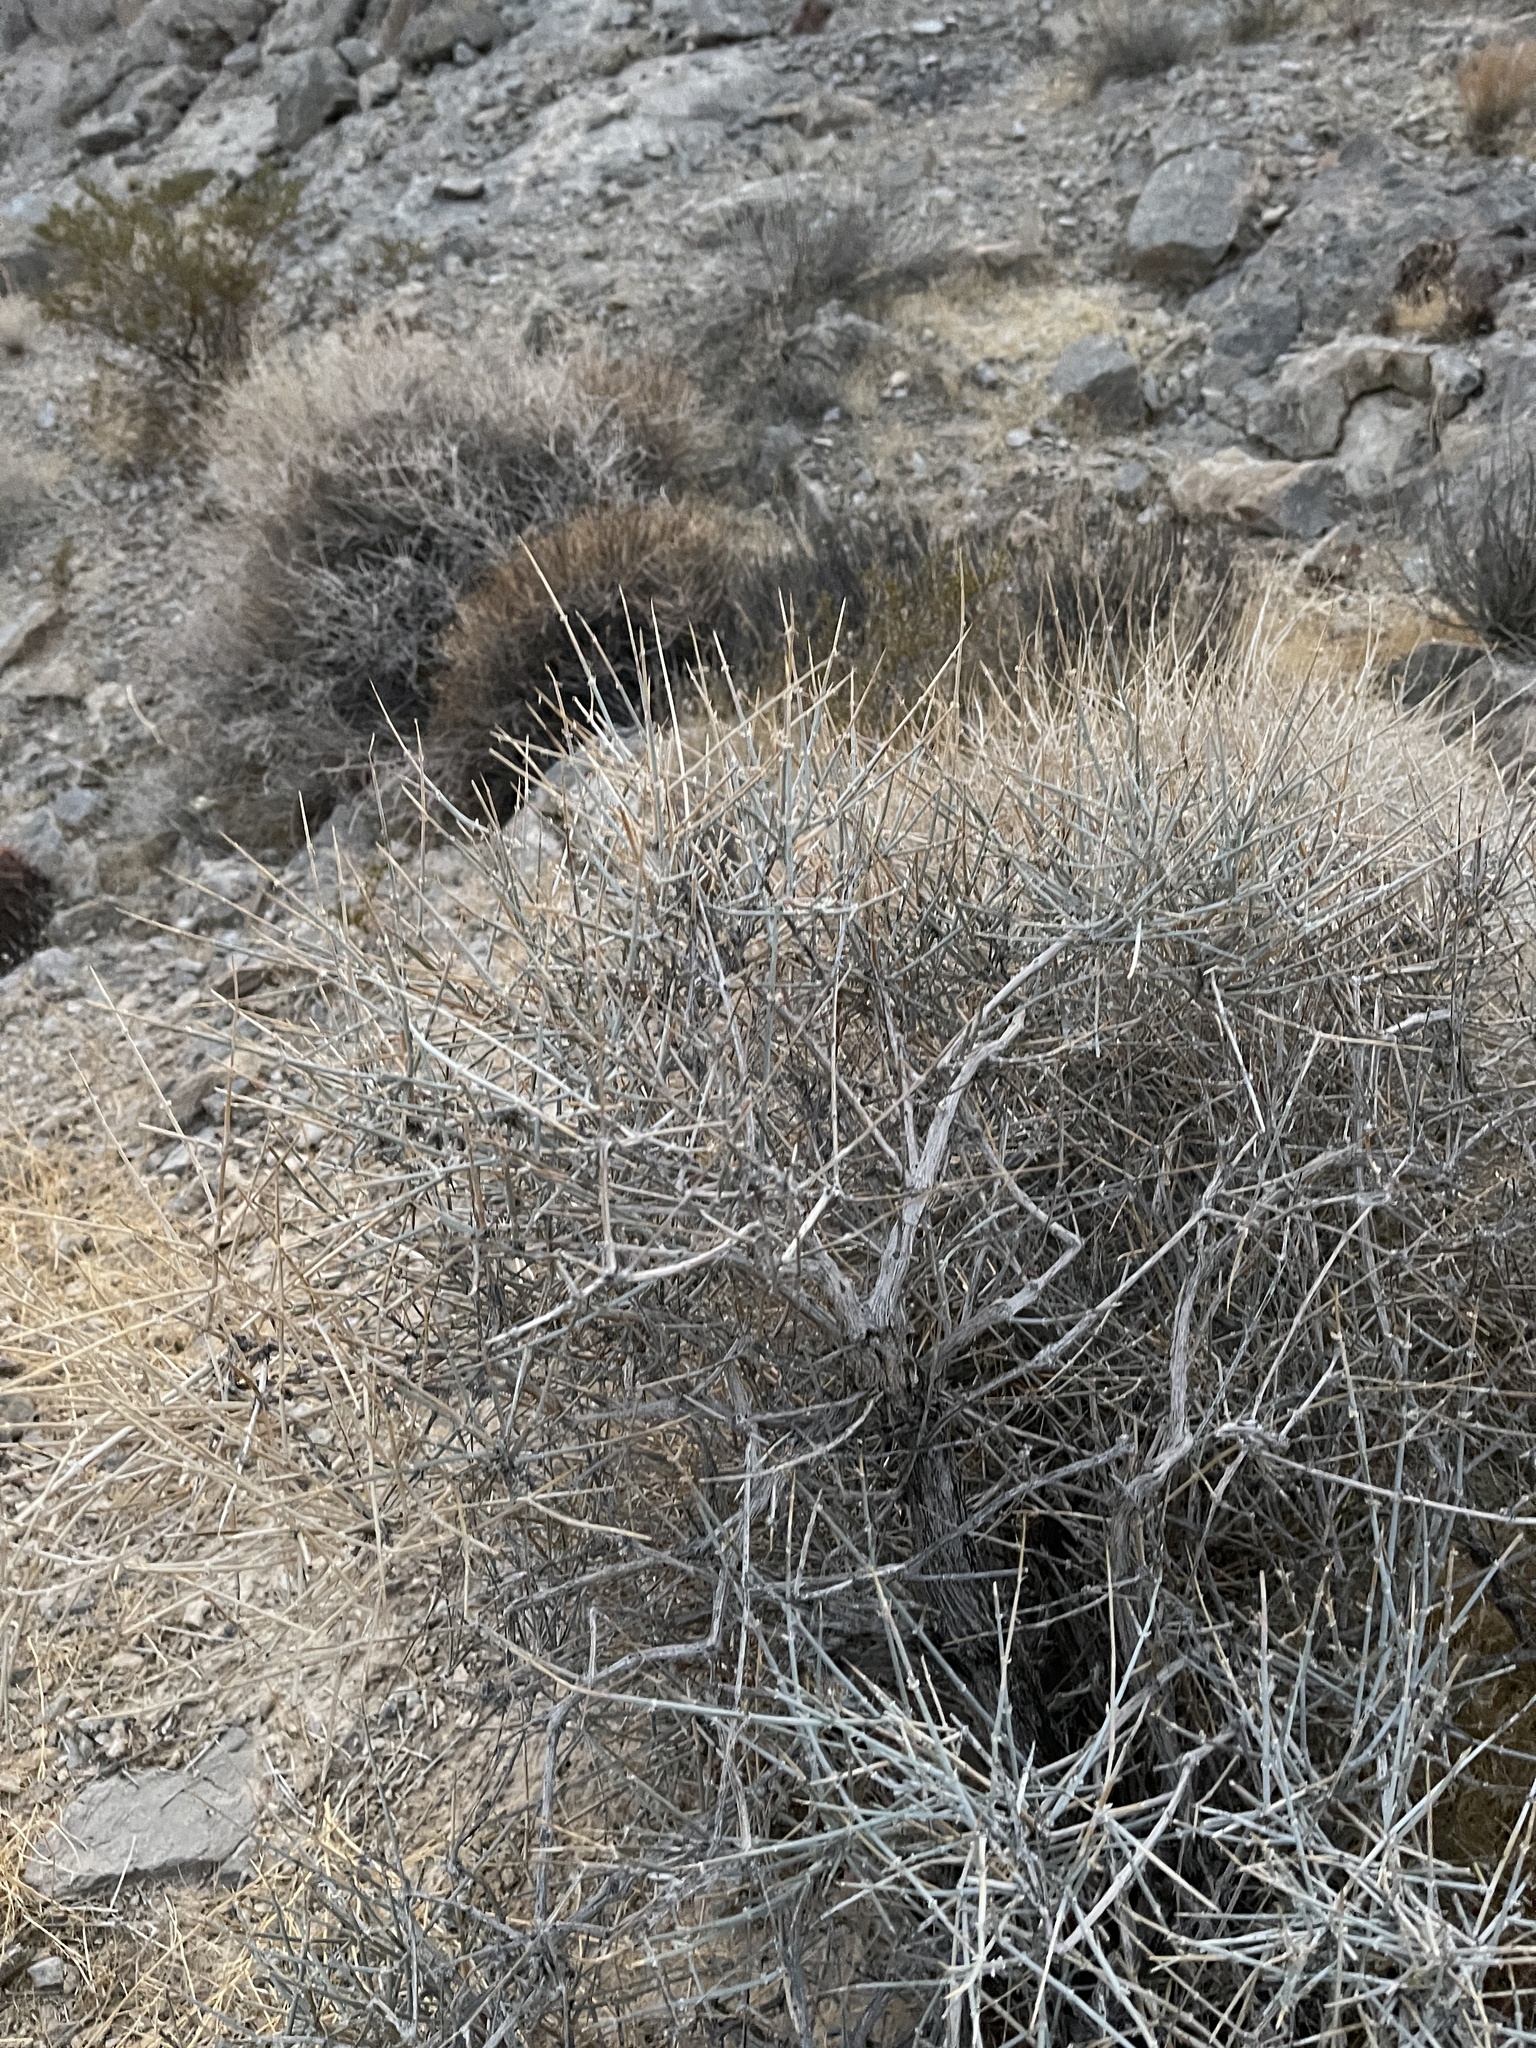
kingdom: Plantae
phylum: Tracheophyta
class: Gnetopsida
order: Ephedrales
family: Ephedraceae
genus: Ephedra
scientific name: Ephedra nevadensis
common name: Gray ephedra
